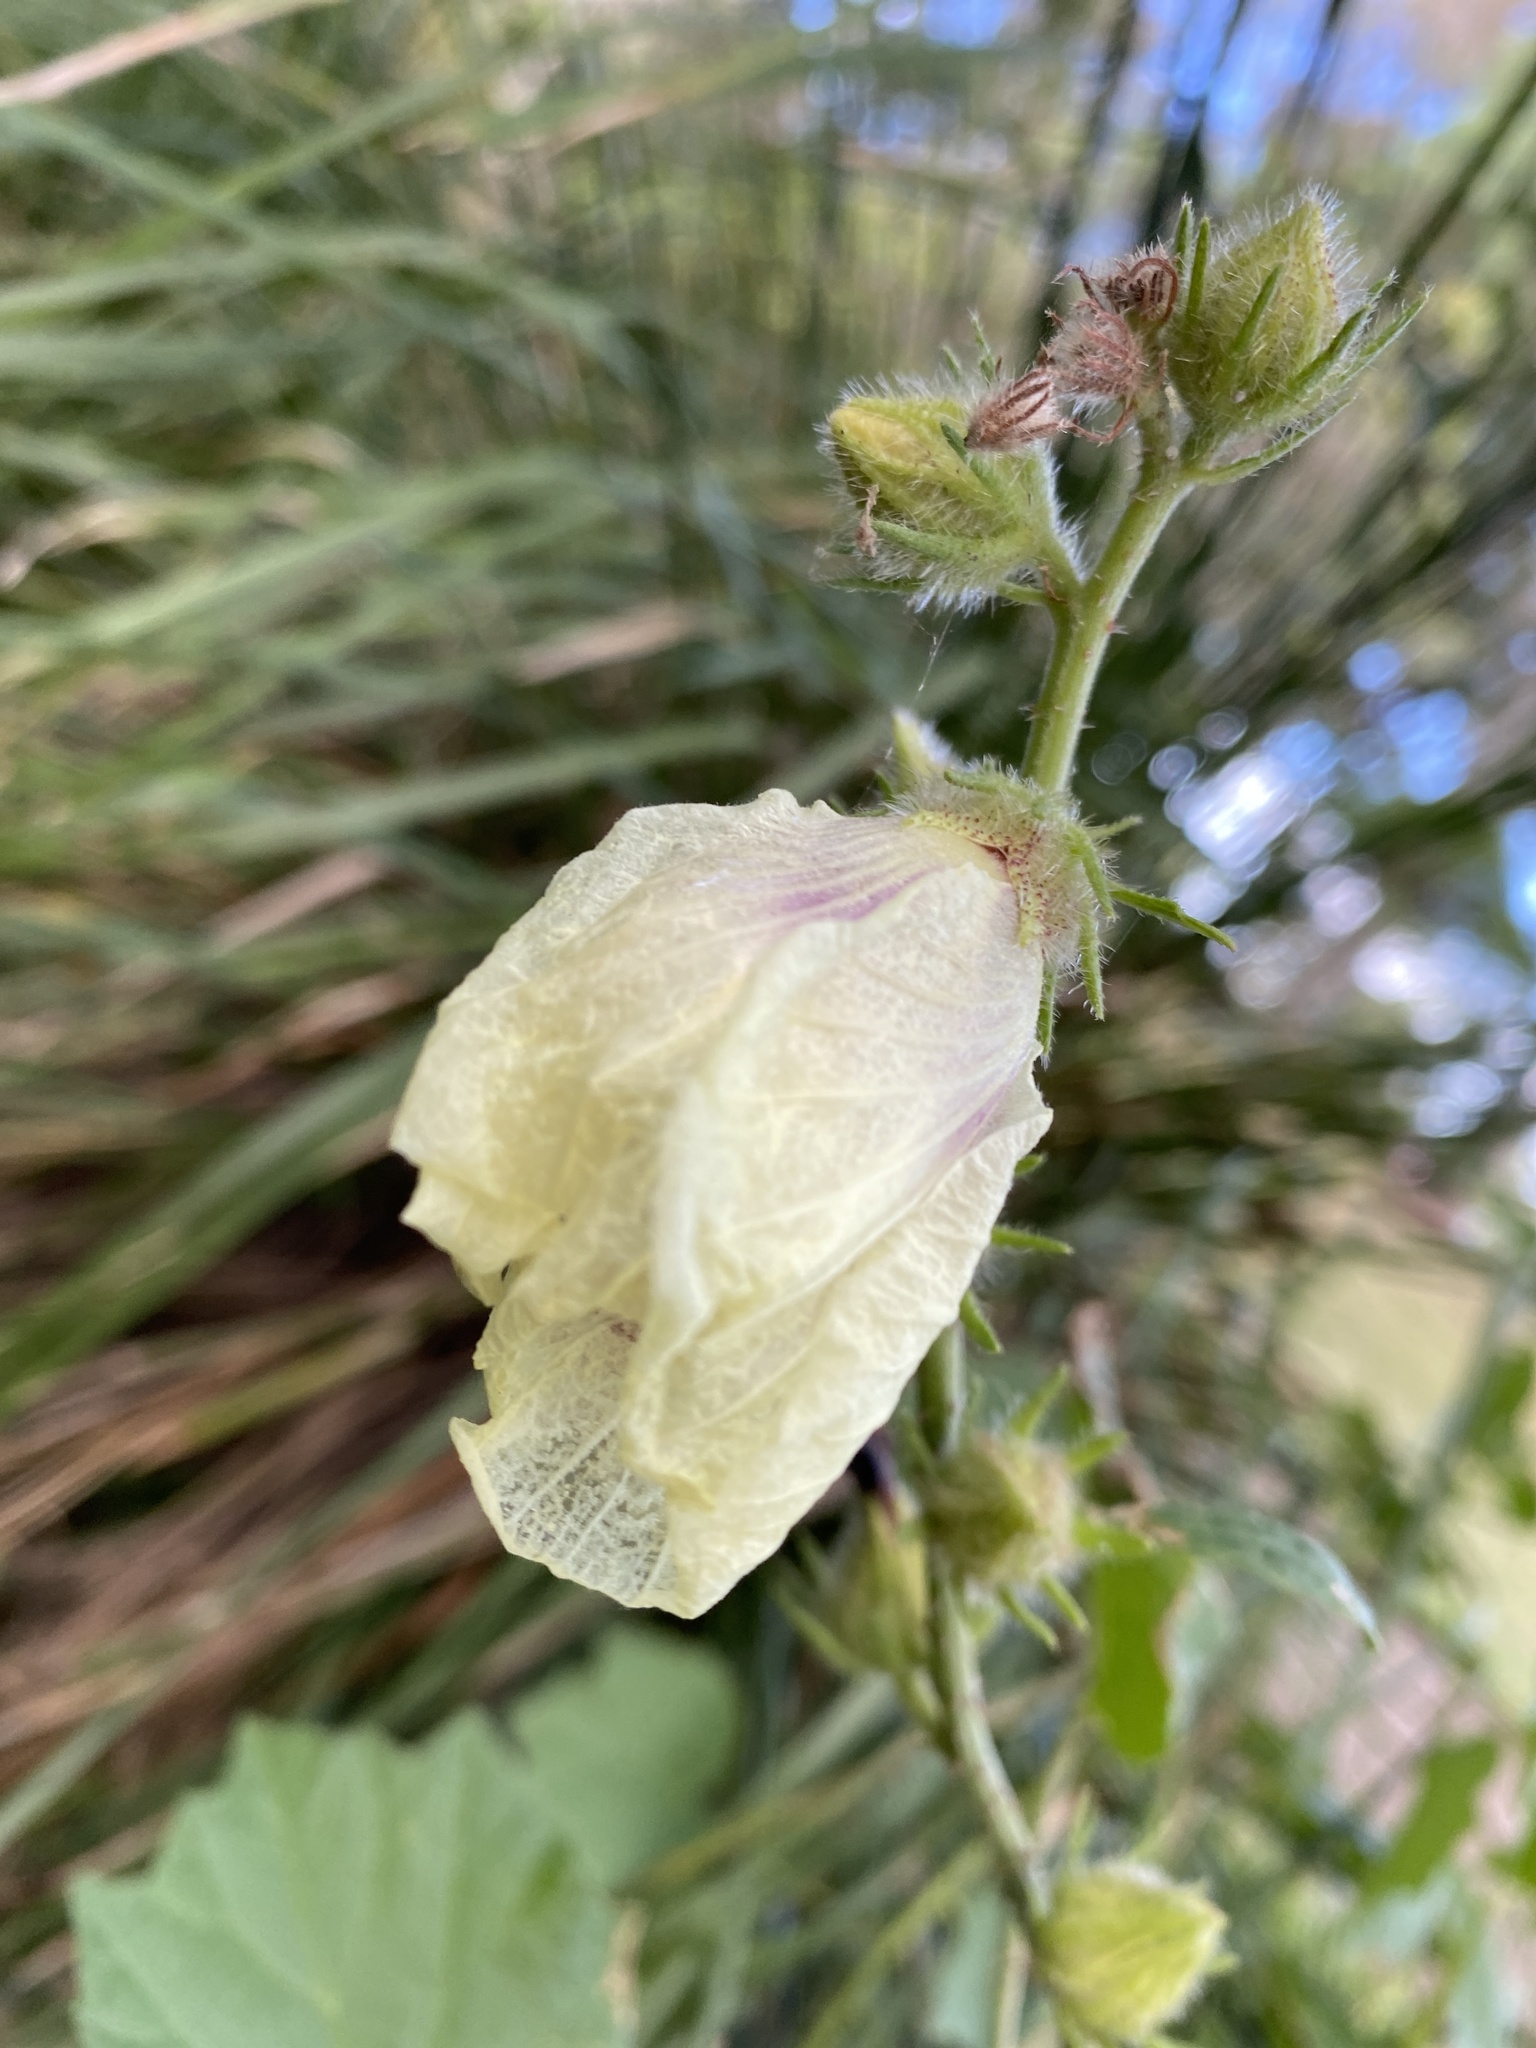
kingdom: Plantae
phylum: Tracheophyta
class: Magnoliopsida
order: Malvales
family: Malvaceae
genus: Hibiscus
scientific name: Hibiscus diversifolius
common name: Cape hibiscus
